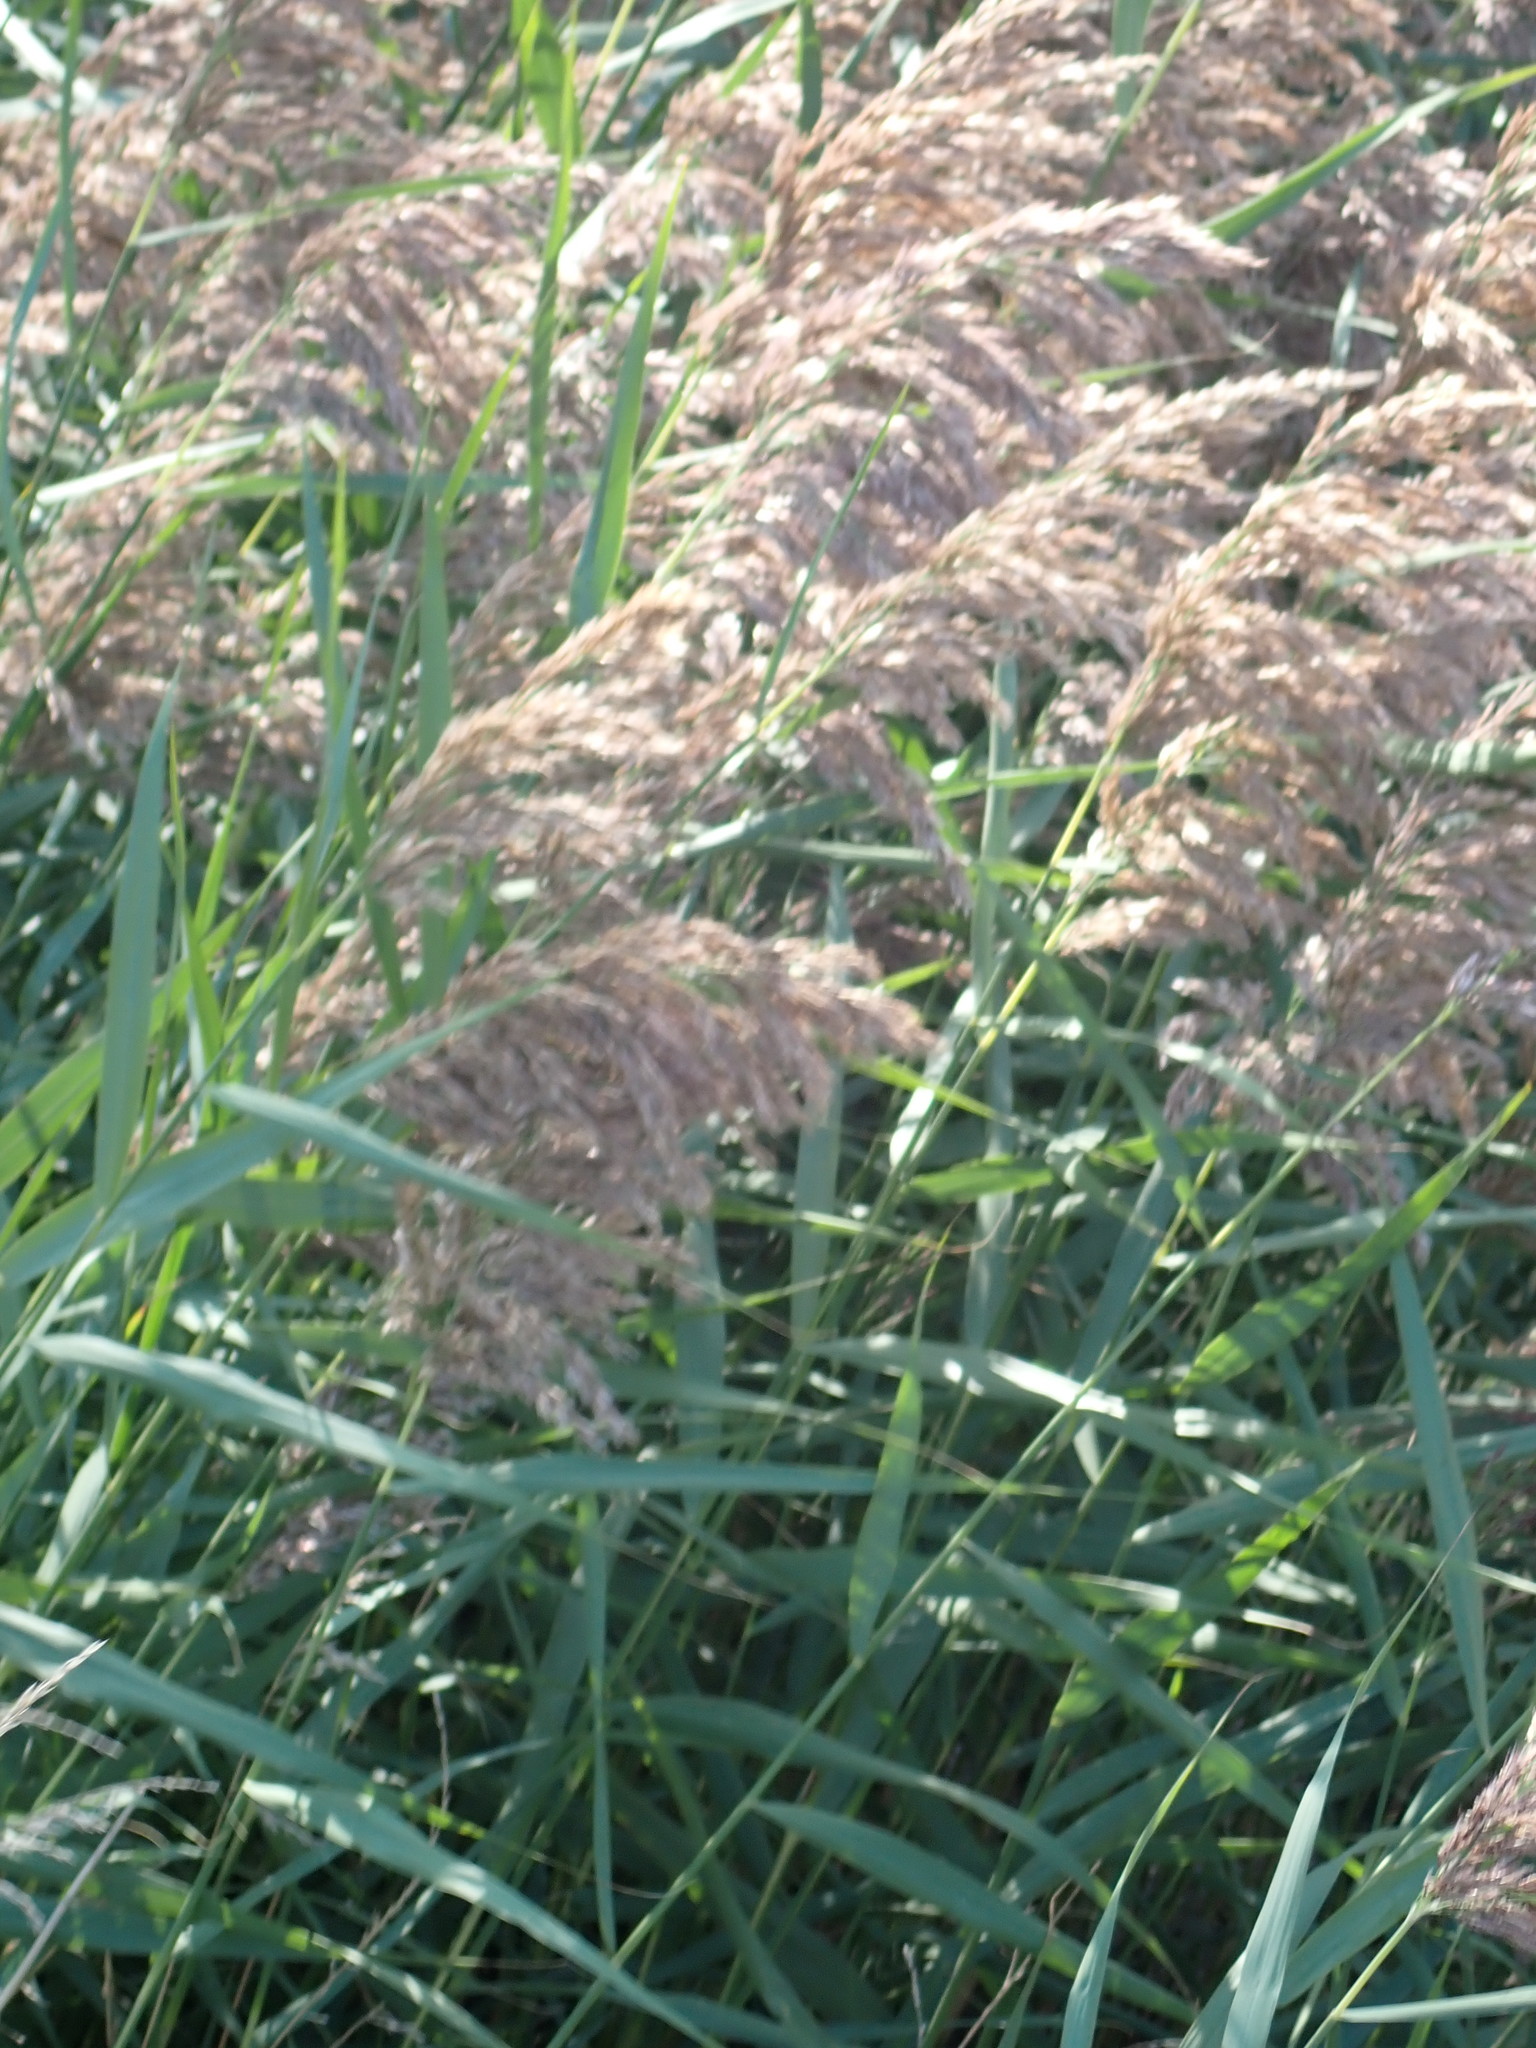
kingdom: Plantae
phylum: Tracheophyta
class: Liliopsida
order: Poales
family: Poaceae
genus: Phragmites
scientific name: Phragmites australis
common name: Common reed
